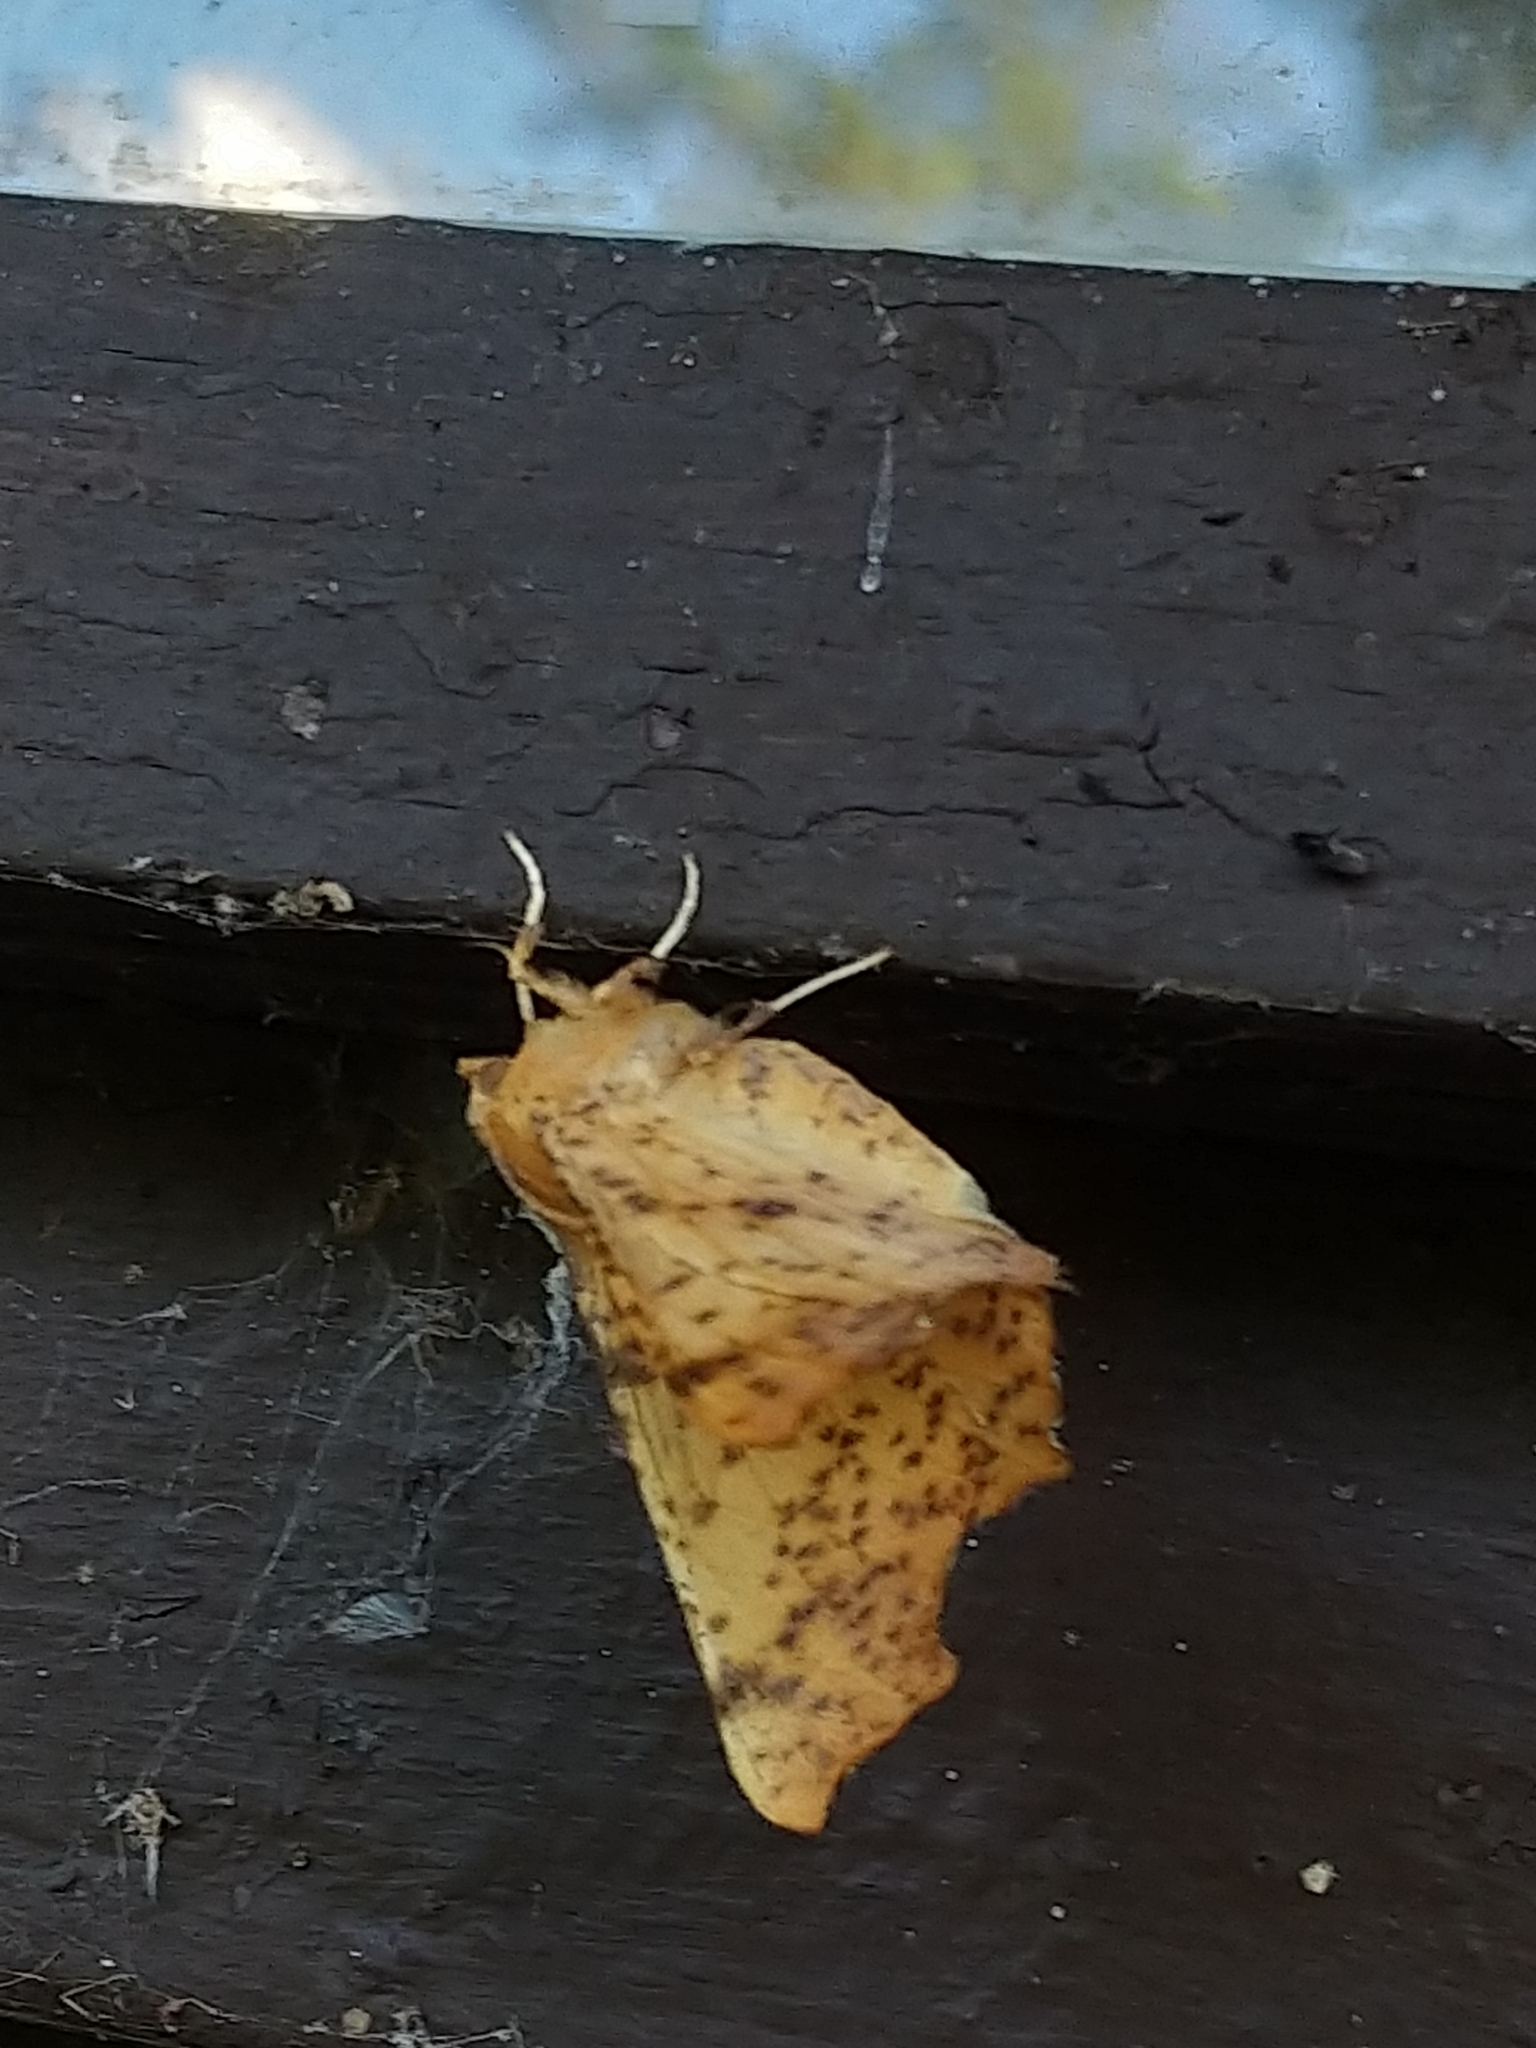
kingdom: Animalia
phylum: Arthropoda
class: Insecta
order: Lepidoptera
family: Geometridae
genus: Ennomos
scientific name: Ennomos magnaria
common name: Maple spanworm
